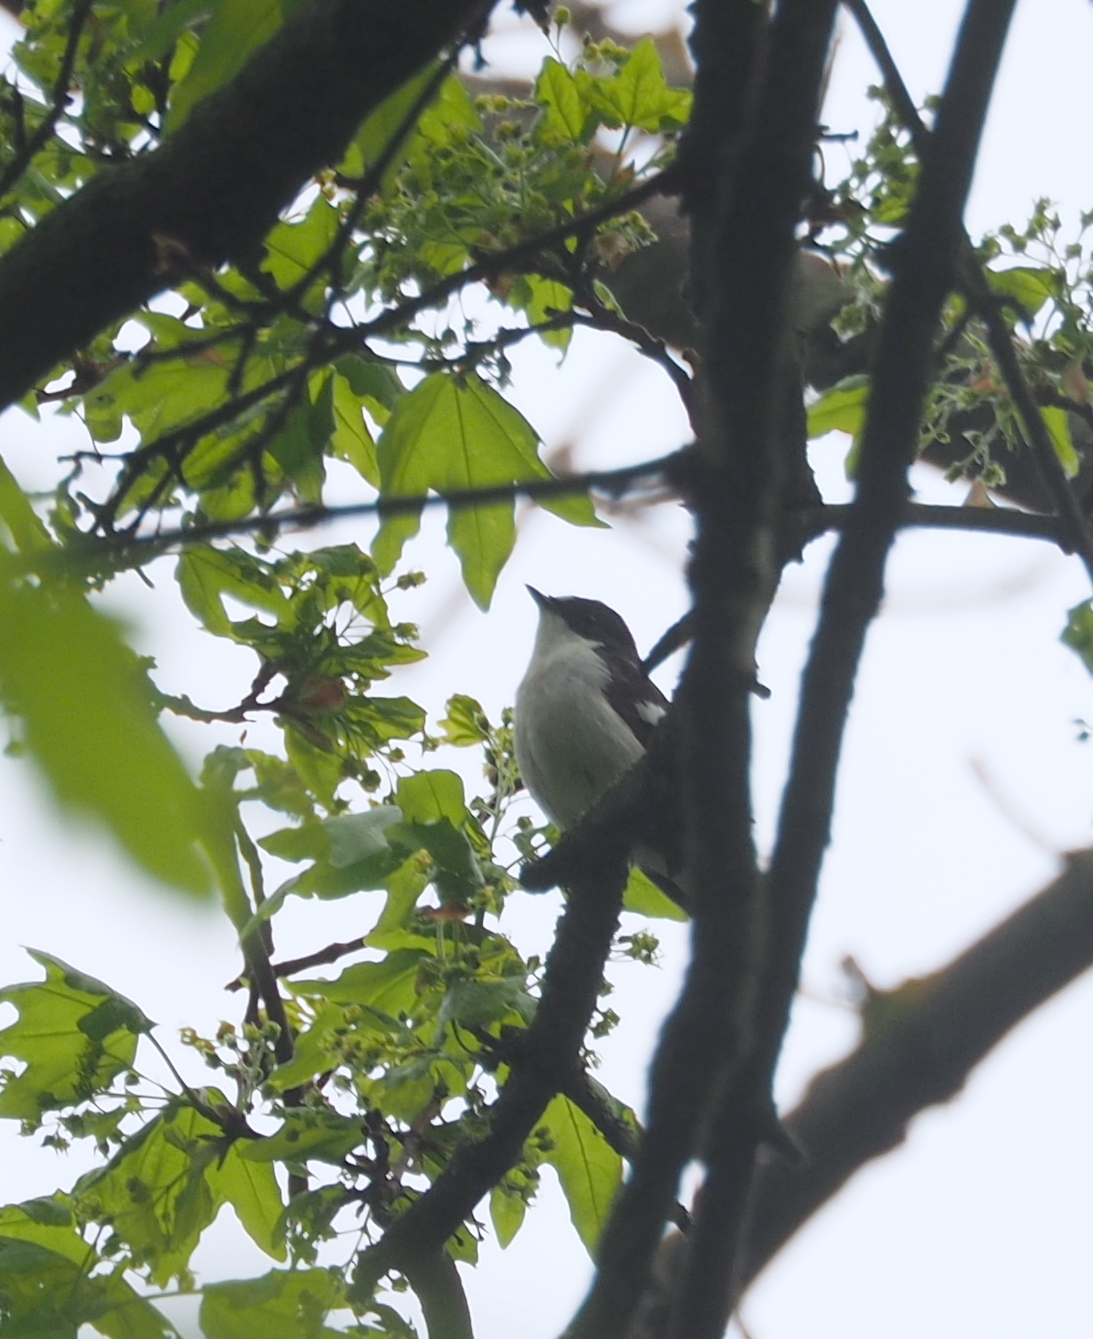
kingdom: Animalia
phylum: Chordata
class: Aves
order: Passeriformes
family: Muscicapidae
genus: Ficedula
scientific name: Ficedula hypoleuca
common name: European pied flycatcher
